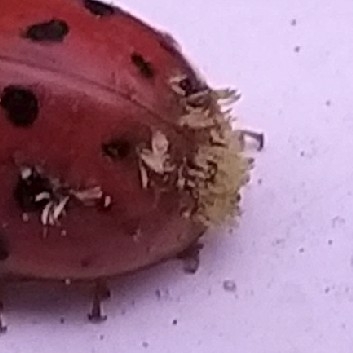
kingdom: Fungi
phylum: Ascomycota
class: Laboulbeniomycetes
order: Laboulbeniales
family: Laboulbeniaceae
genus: Hesperomyces
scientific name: Hesperomyces harmoniae
